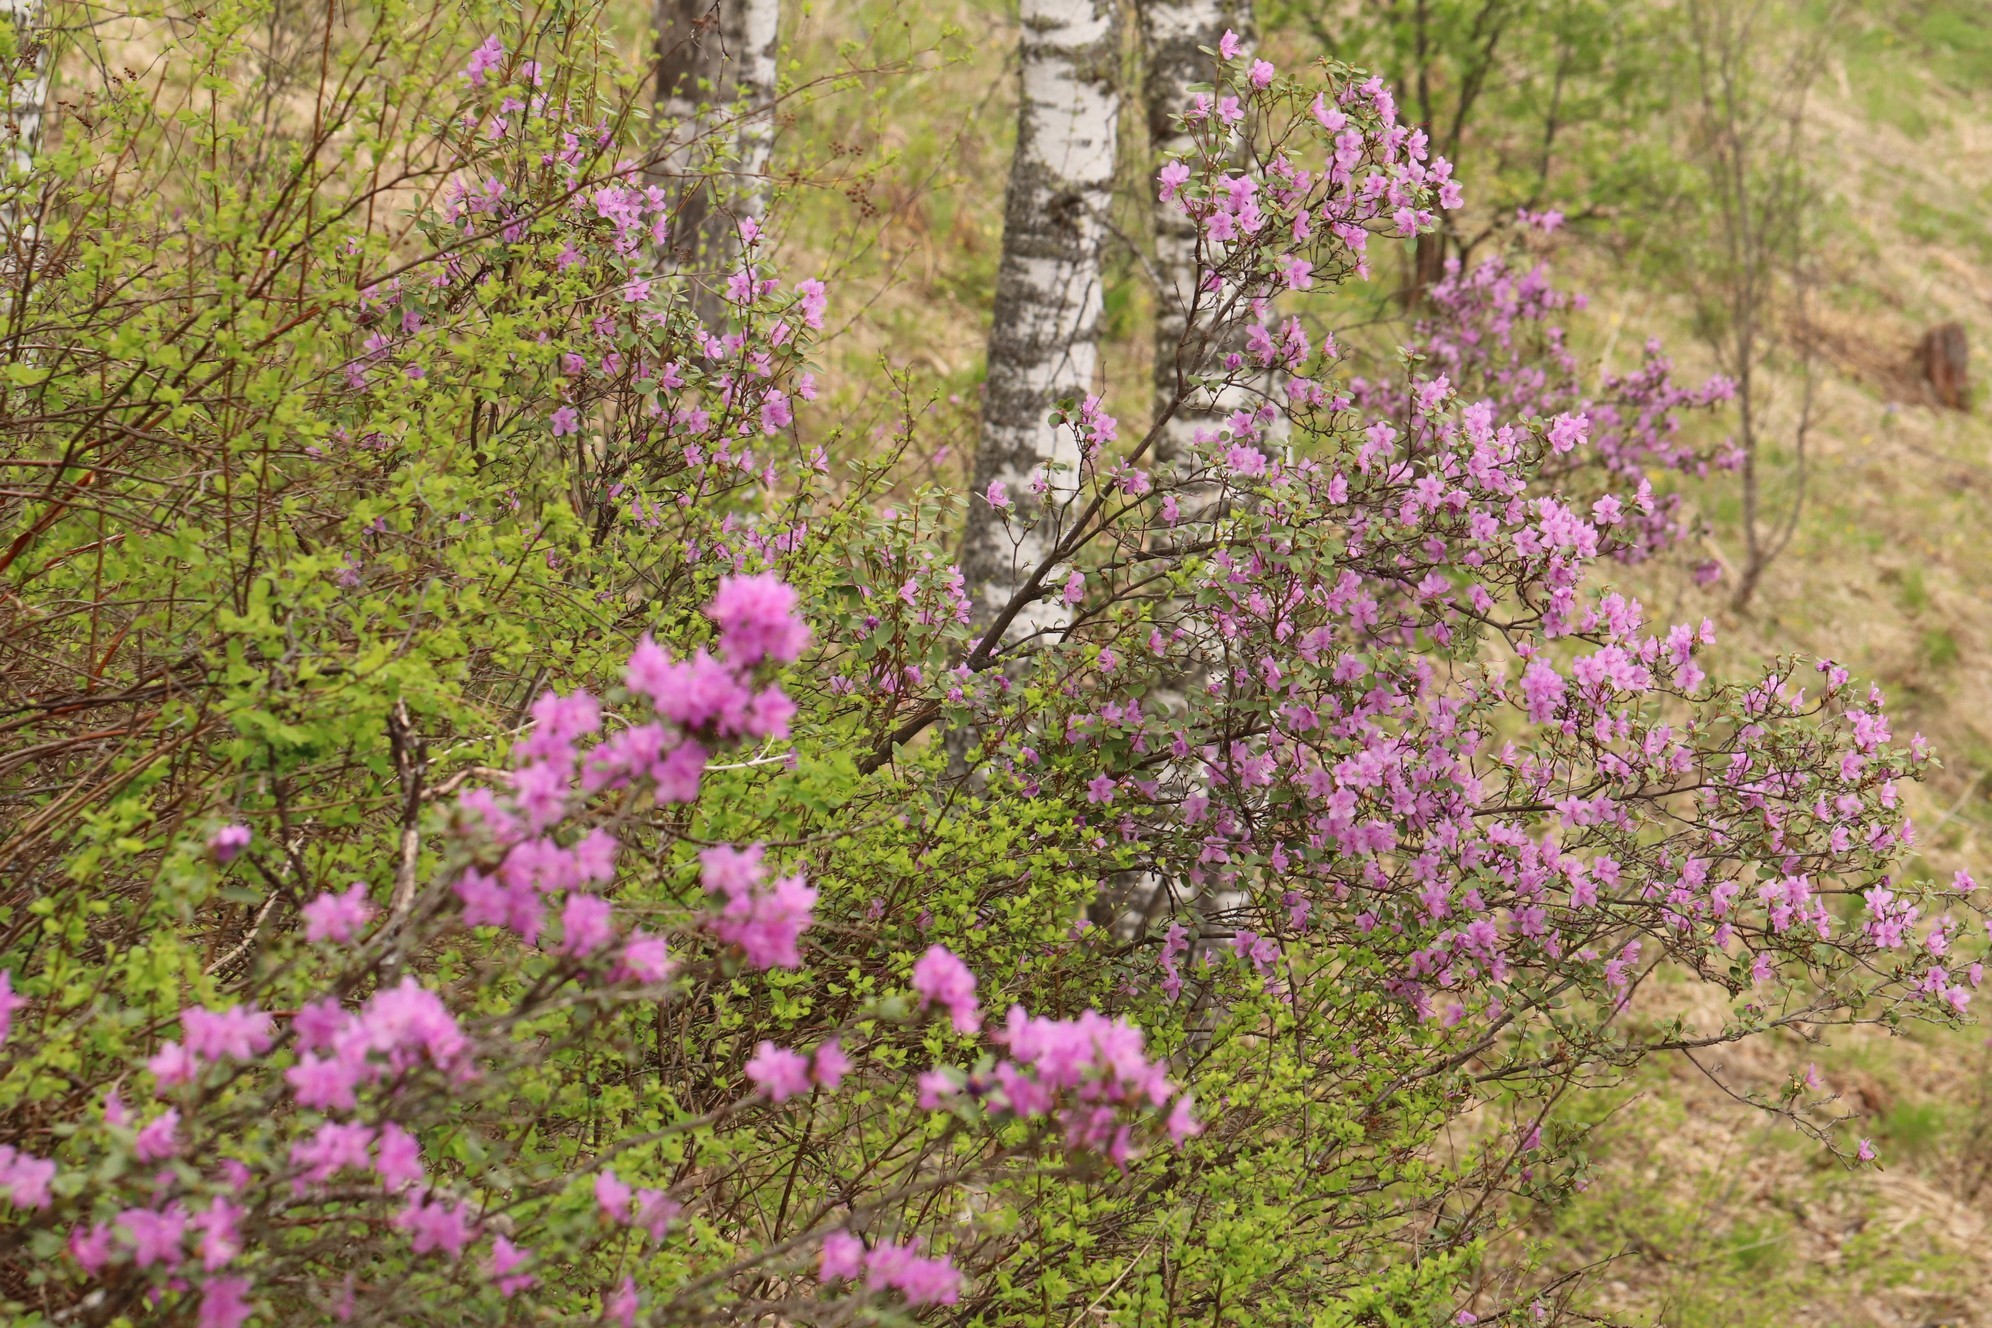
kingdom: Plantae
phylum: Tracheophyta
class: Magnoliopsida
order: Ericales
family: Ericaceae
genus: Rhododendron
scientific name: Rhododendron dauricum
